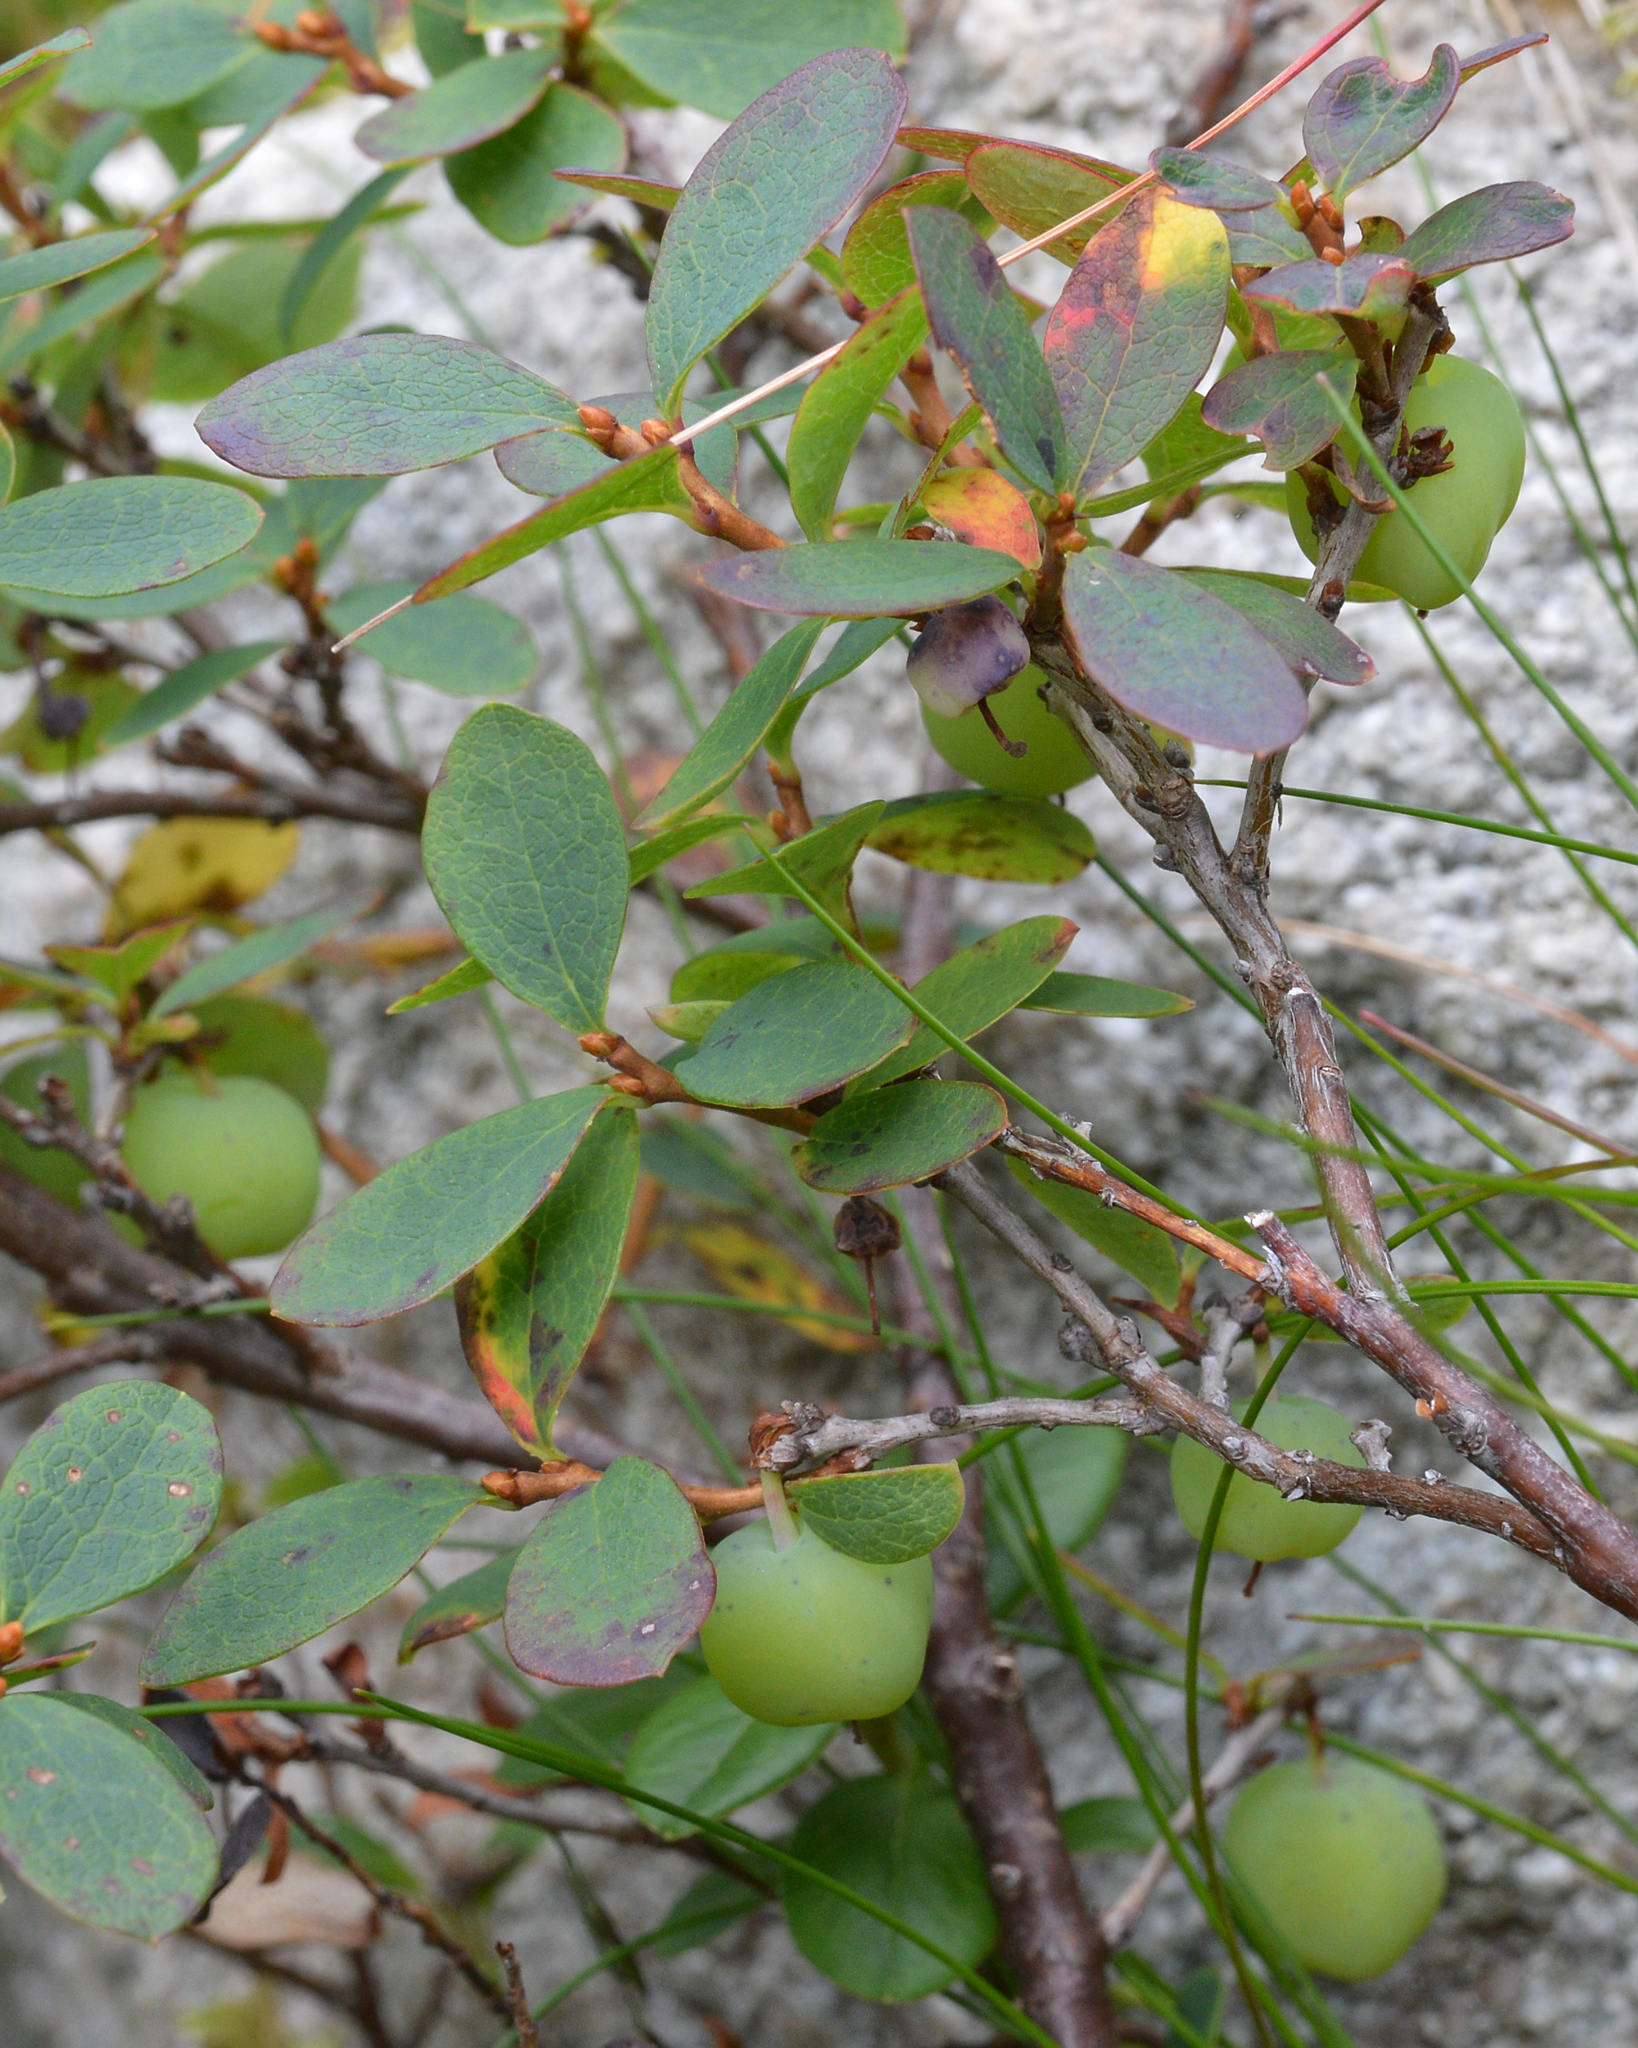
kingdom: Plantae
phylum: Tracheophyta
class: Magnoliopsida
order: Ericales
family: Ericaceae
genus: Vaccinium
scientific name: Vaccinium uliginosum
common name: Bog bilberry
